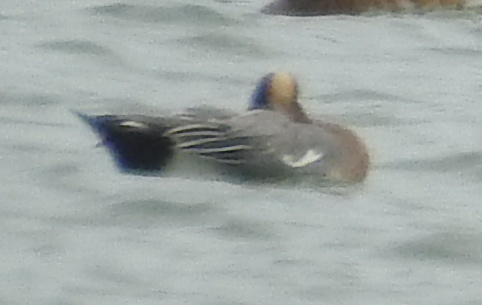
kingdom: Animalia
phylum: Chordata
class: Aves
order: Anseriformes
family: Anatidae
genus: Mareca
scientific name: Mareca penelope
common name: Eurasian wigeon
